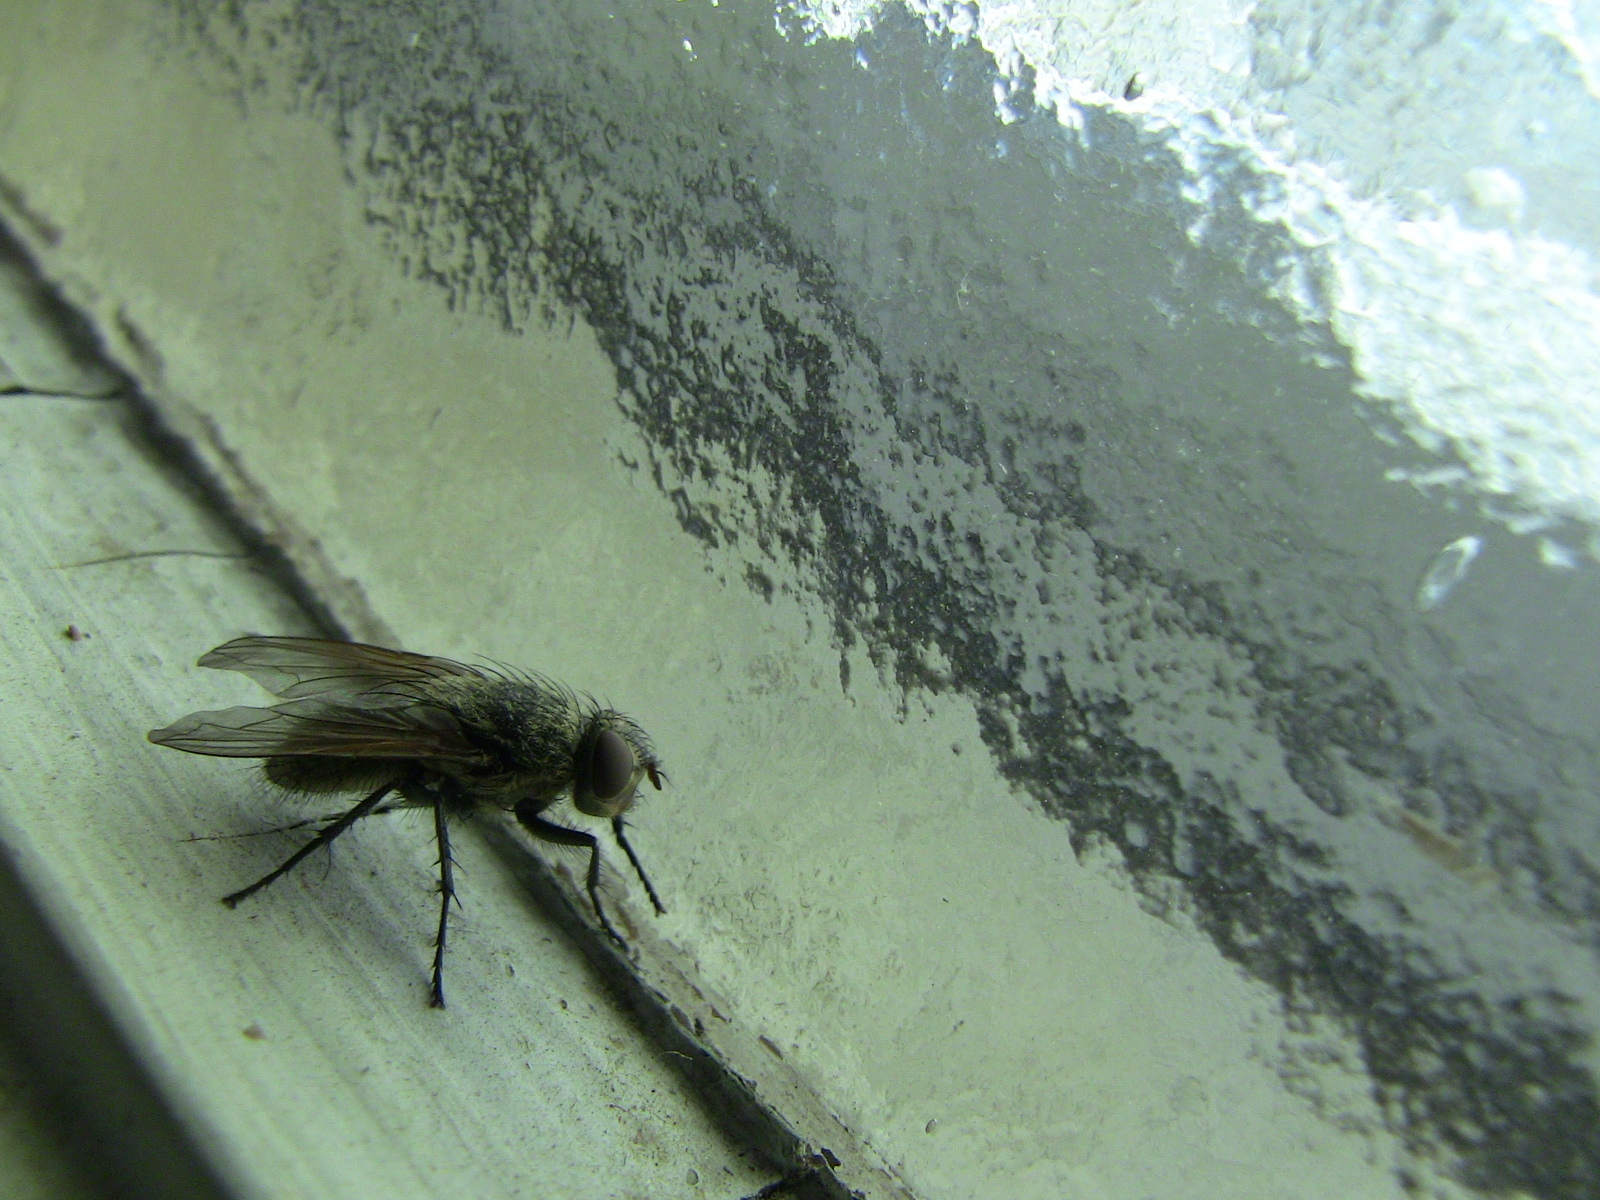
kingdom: Animalia
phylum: Arthropoda
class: Insecta
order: Diptera
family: Polleniidae
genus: Pollenia
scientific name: Pollenia
